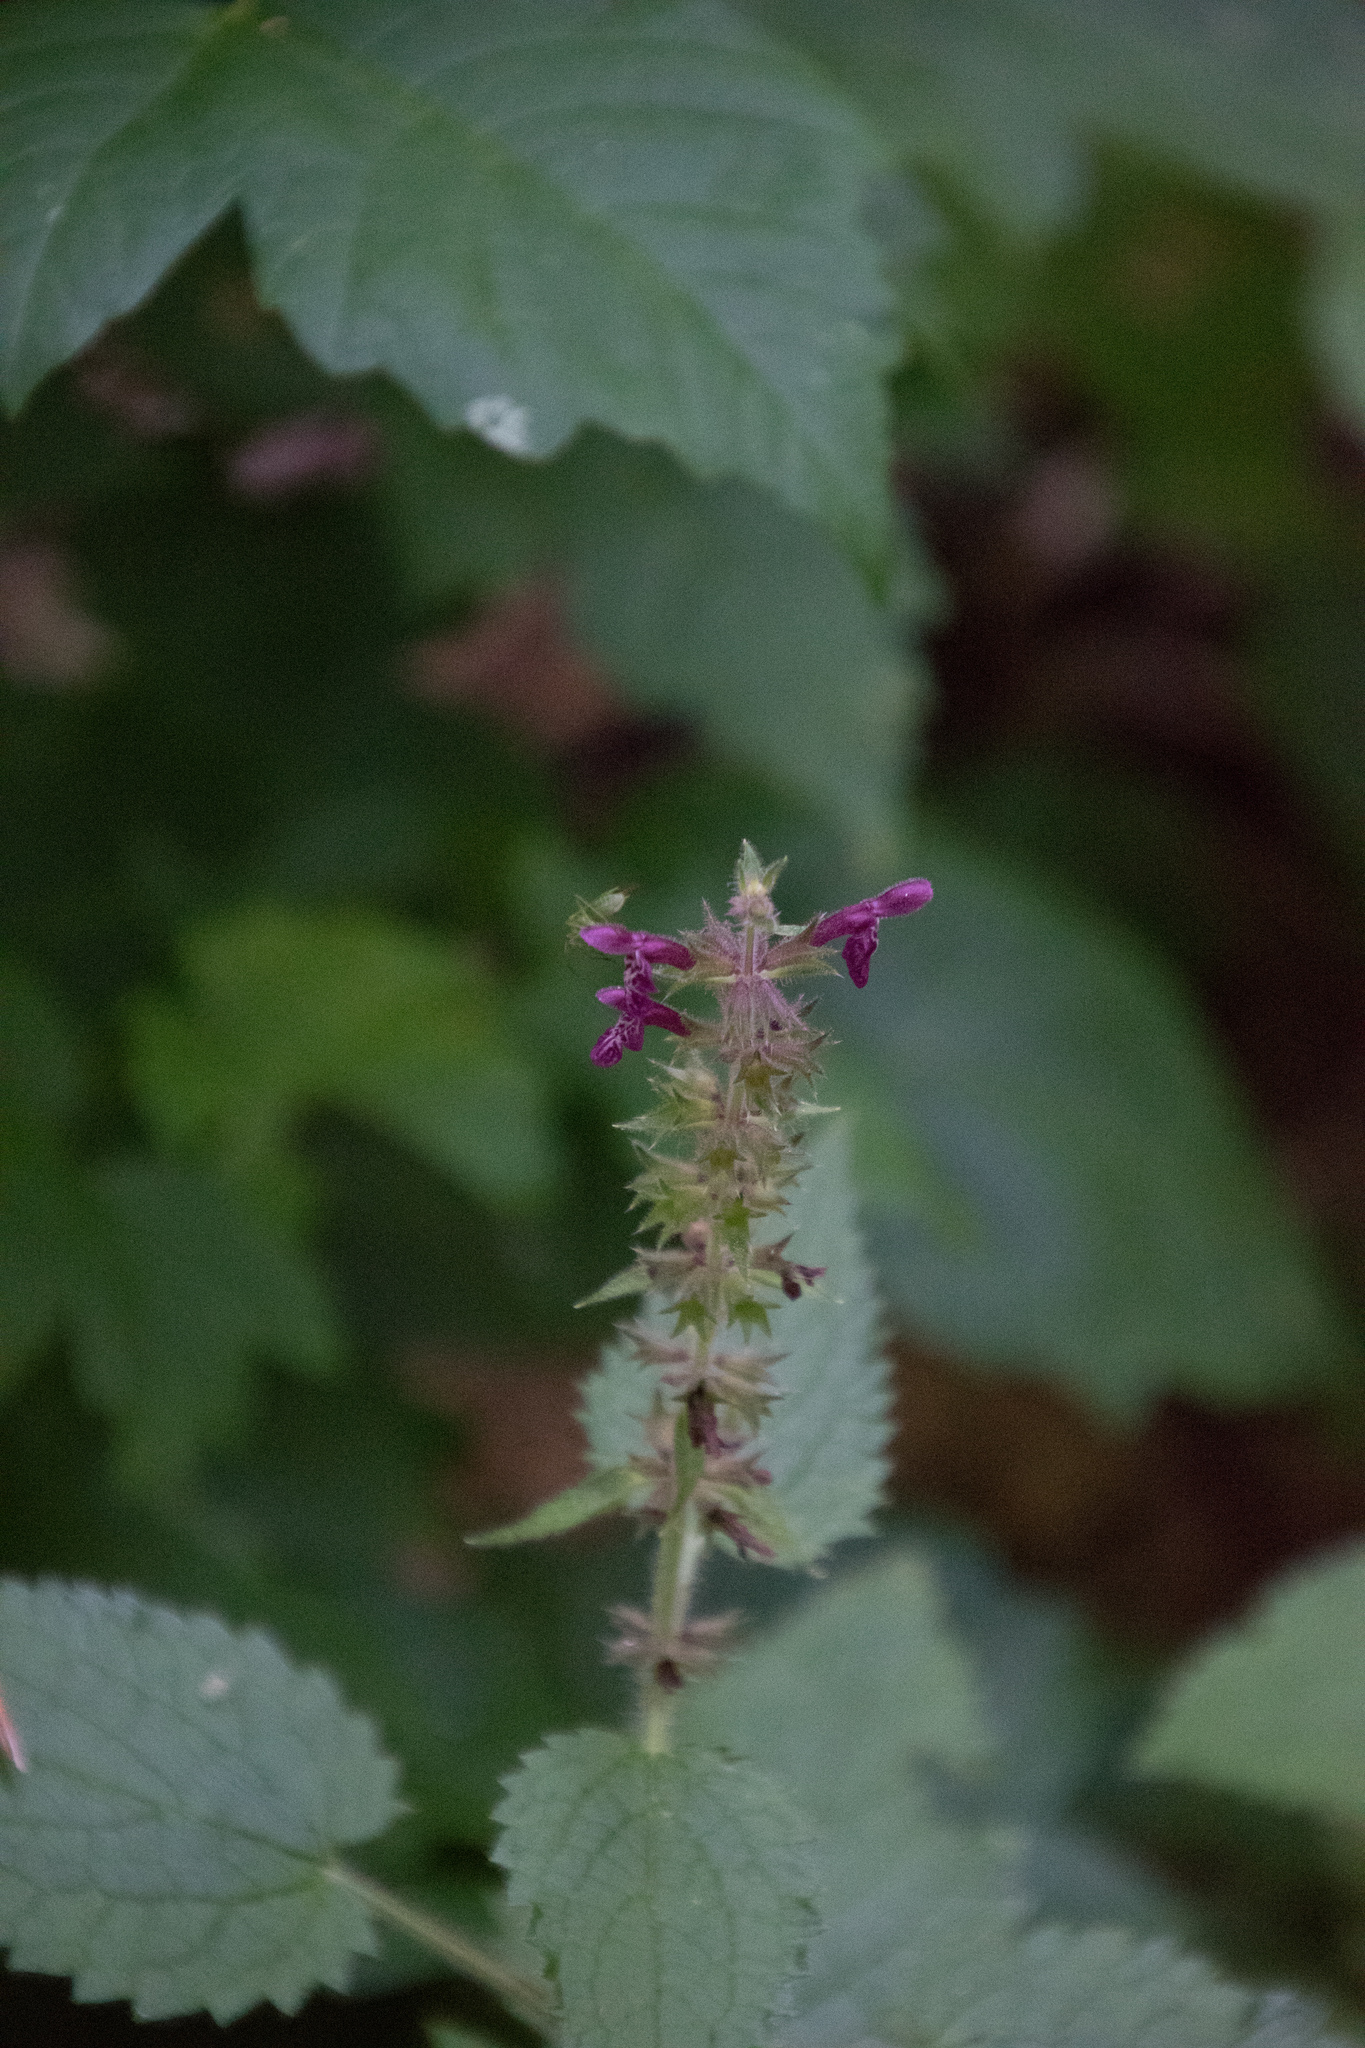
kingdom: Plantae
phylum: Tracheophyta
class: Magnoliopsida
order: Lamiales
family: Lamiaceae
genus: Stachys
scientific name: Stachys sylvatica
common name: Hedge woundwort
